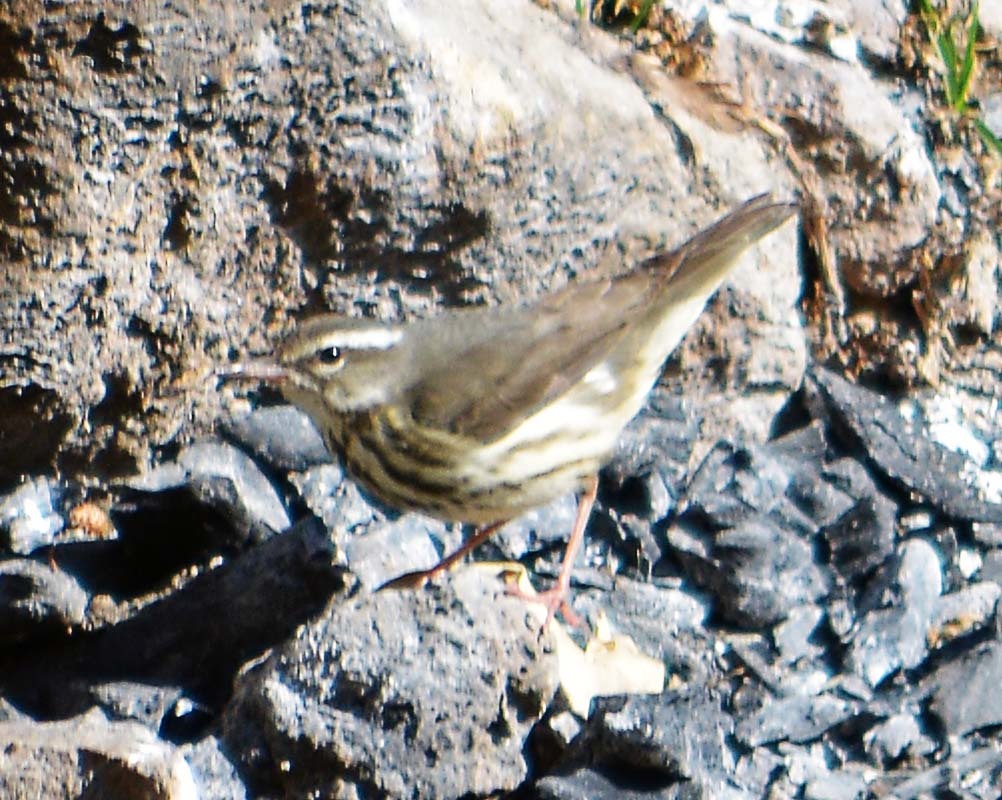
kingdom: Animalia
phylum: Chordata
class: Aves
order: Passeriformes
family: Parulidae
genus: Parkesia
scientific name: Parkesia motacilla
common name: Louisiana waterthrush
